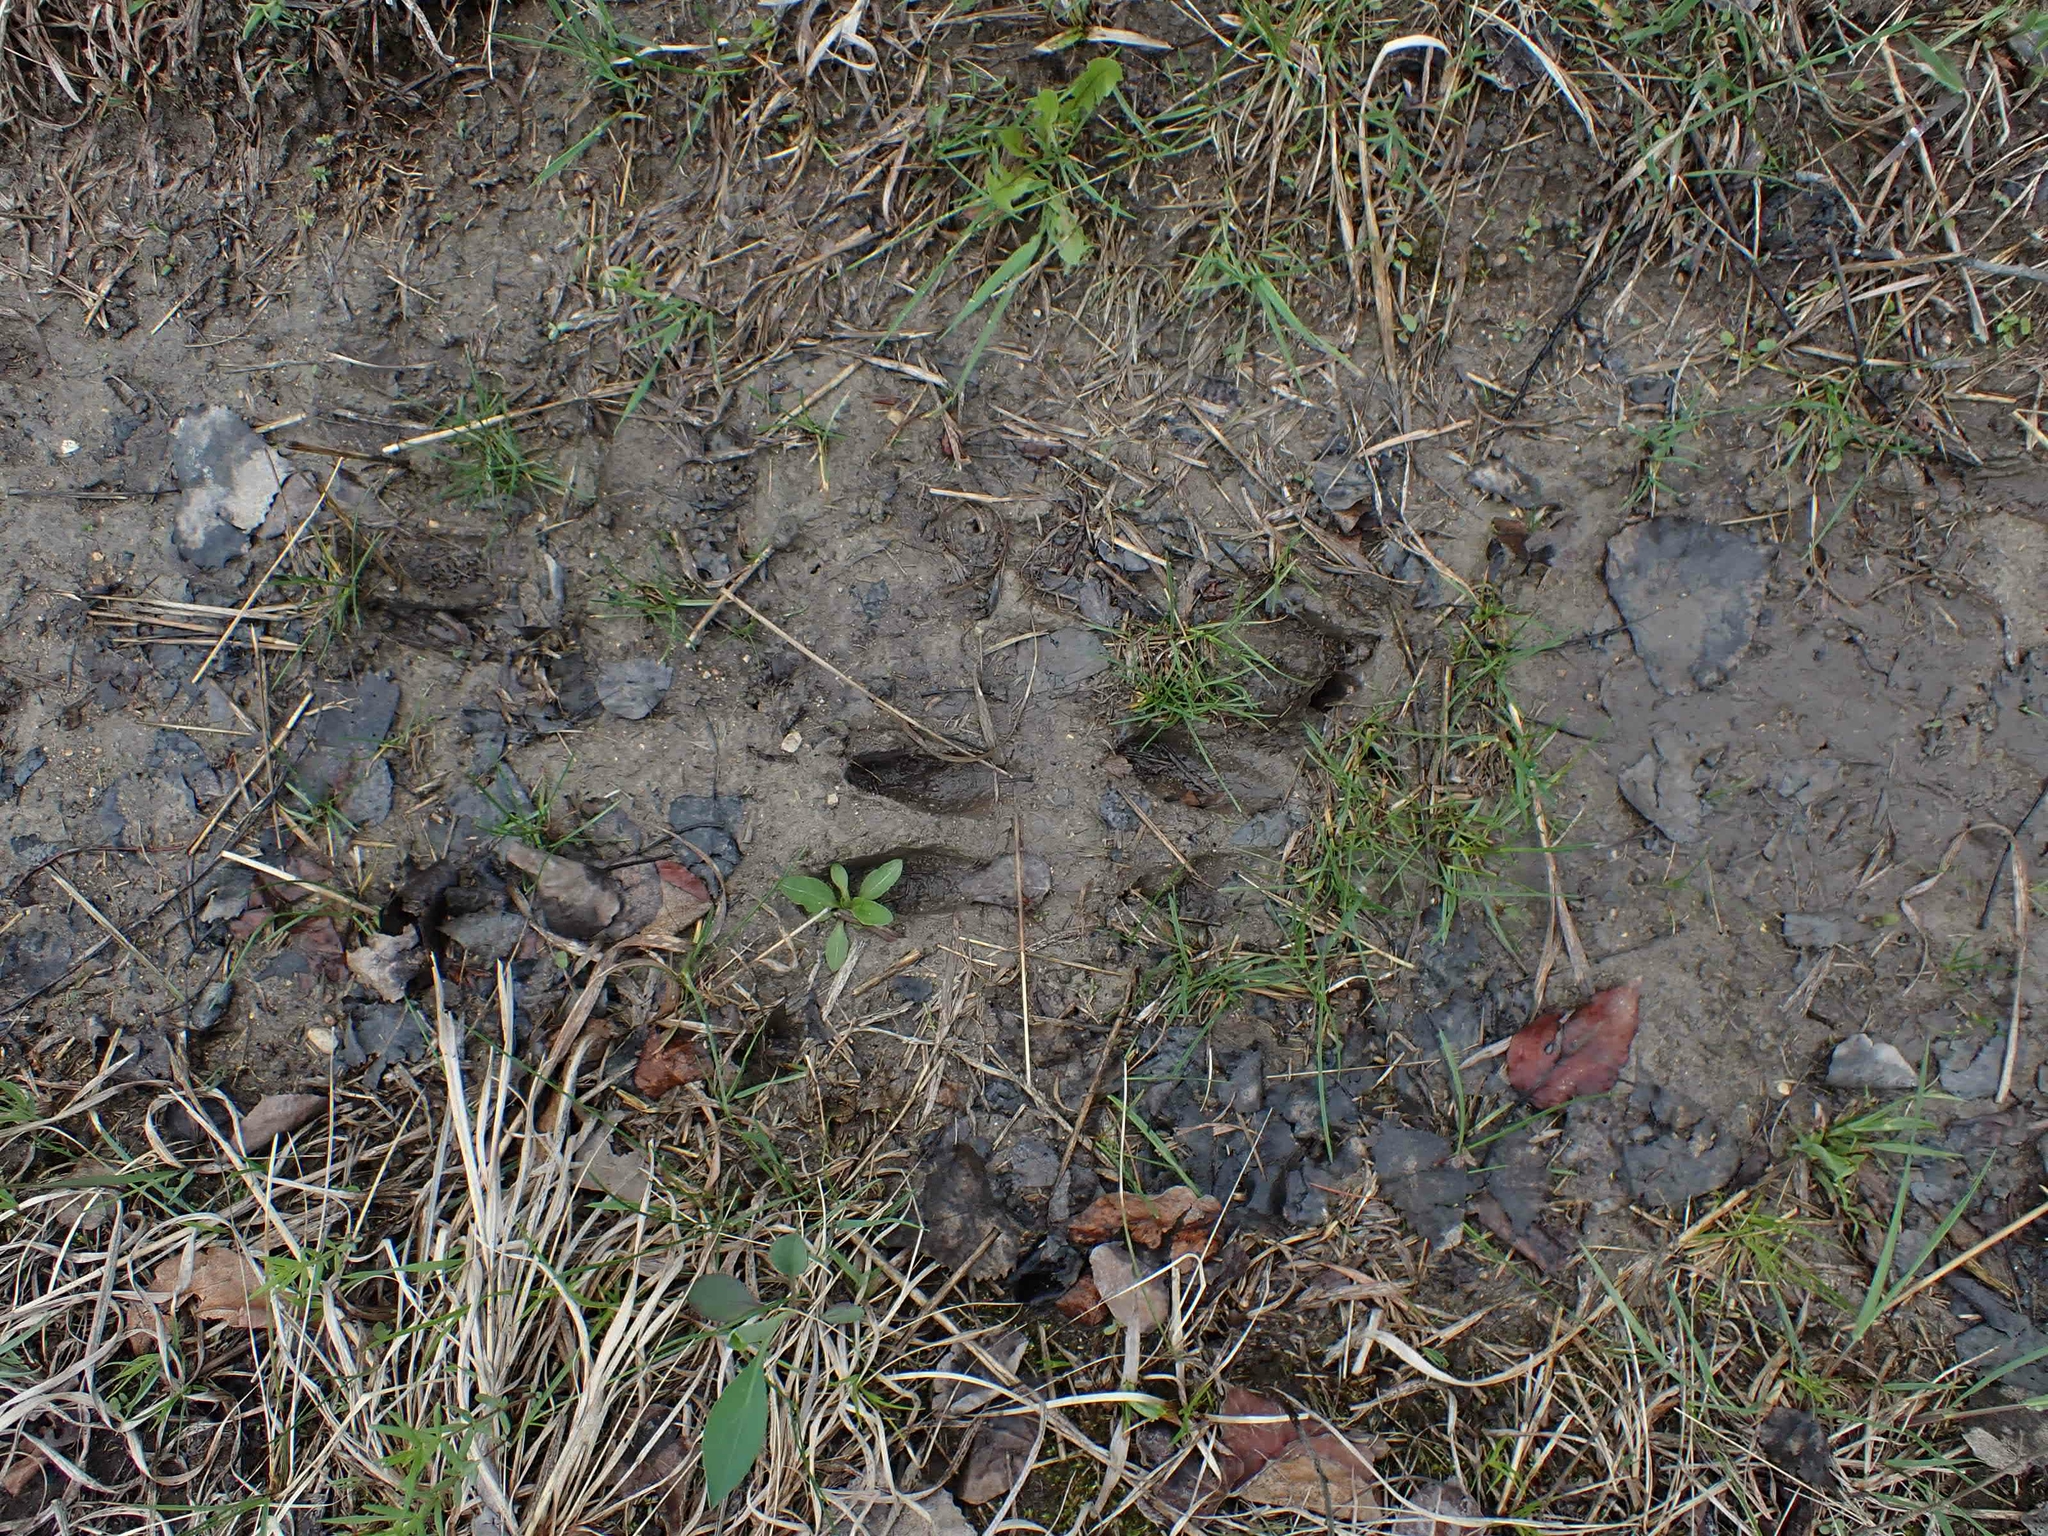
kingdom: Animalia
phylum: Chordata
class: Mammalia
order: Artiodactyla
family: Cervidae
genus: Odocoileus
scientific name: Odocoileus virginianus
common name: White-tailed deer
